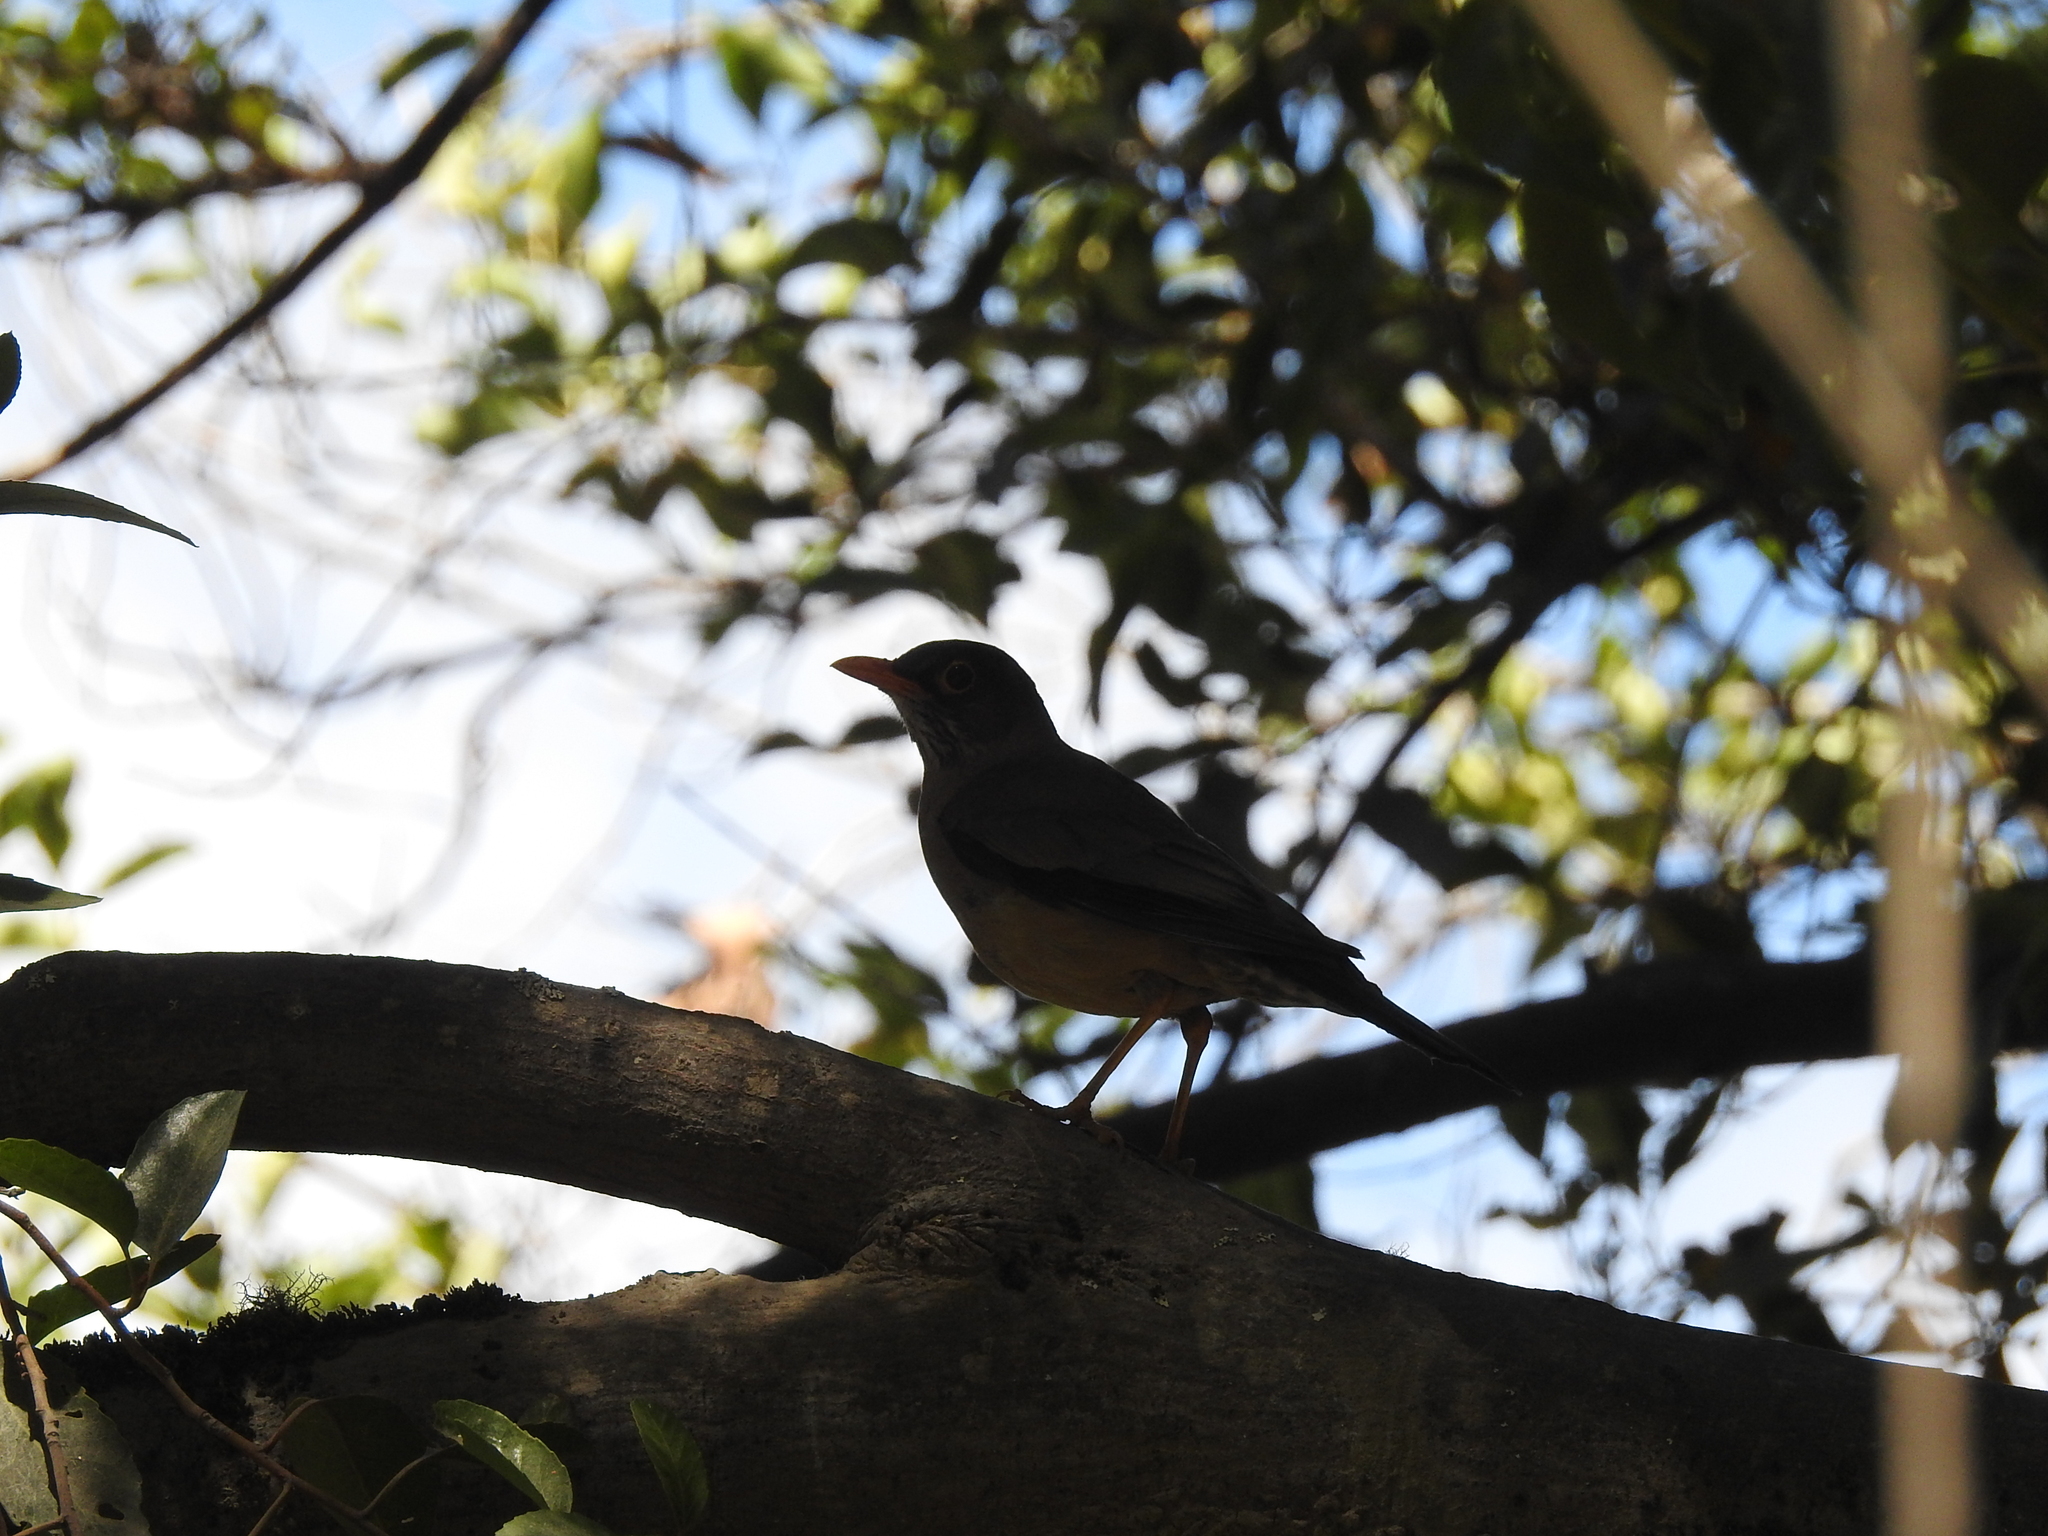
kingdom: Animalia
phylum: Chordata
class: Aves
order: Passeriformes
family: Turdidae
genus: Turdus
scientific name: Turdus falcklandii
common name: Austral thrush
